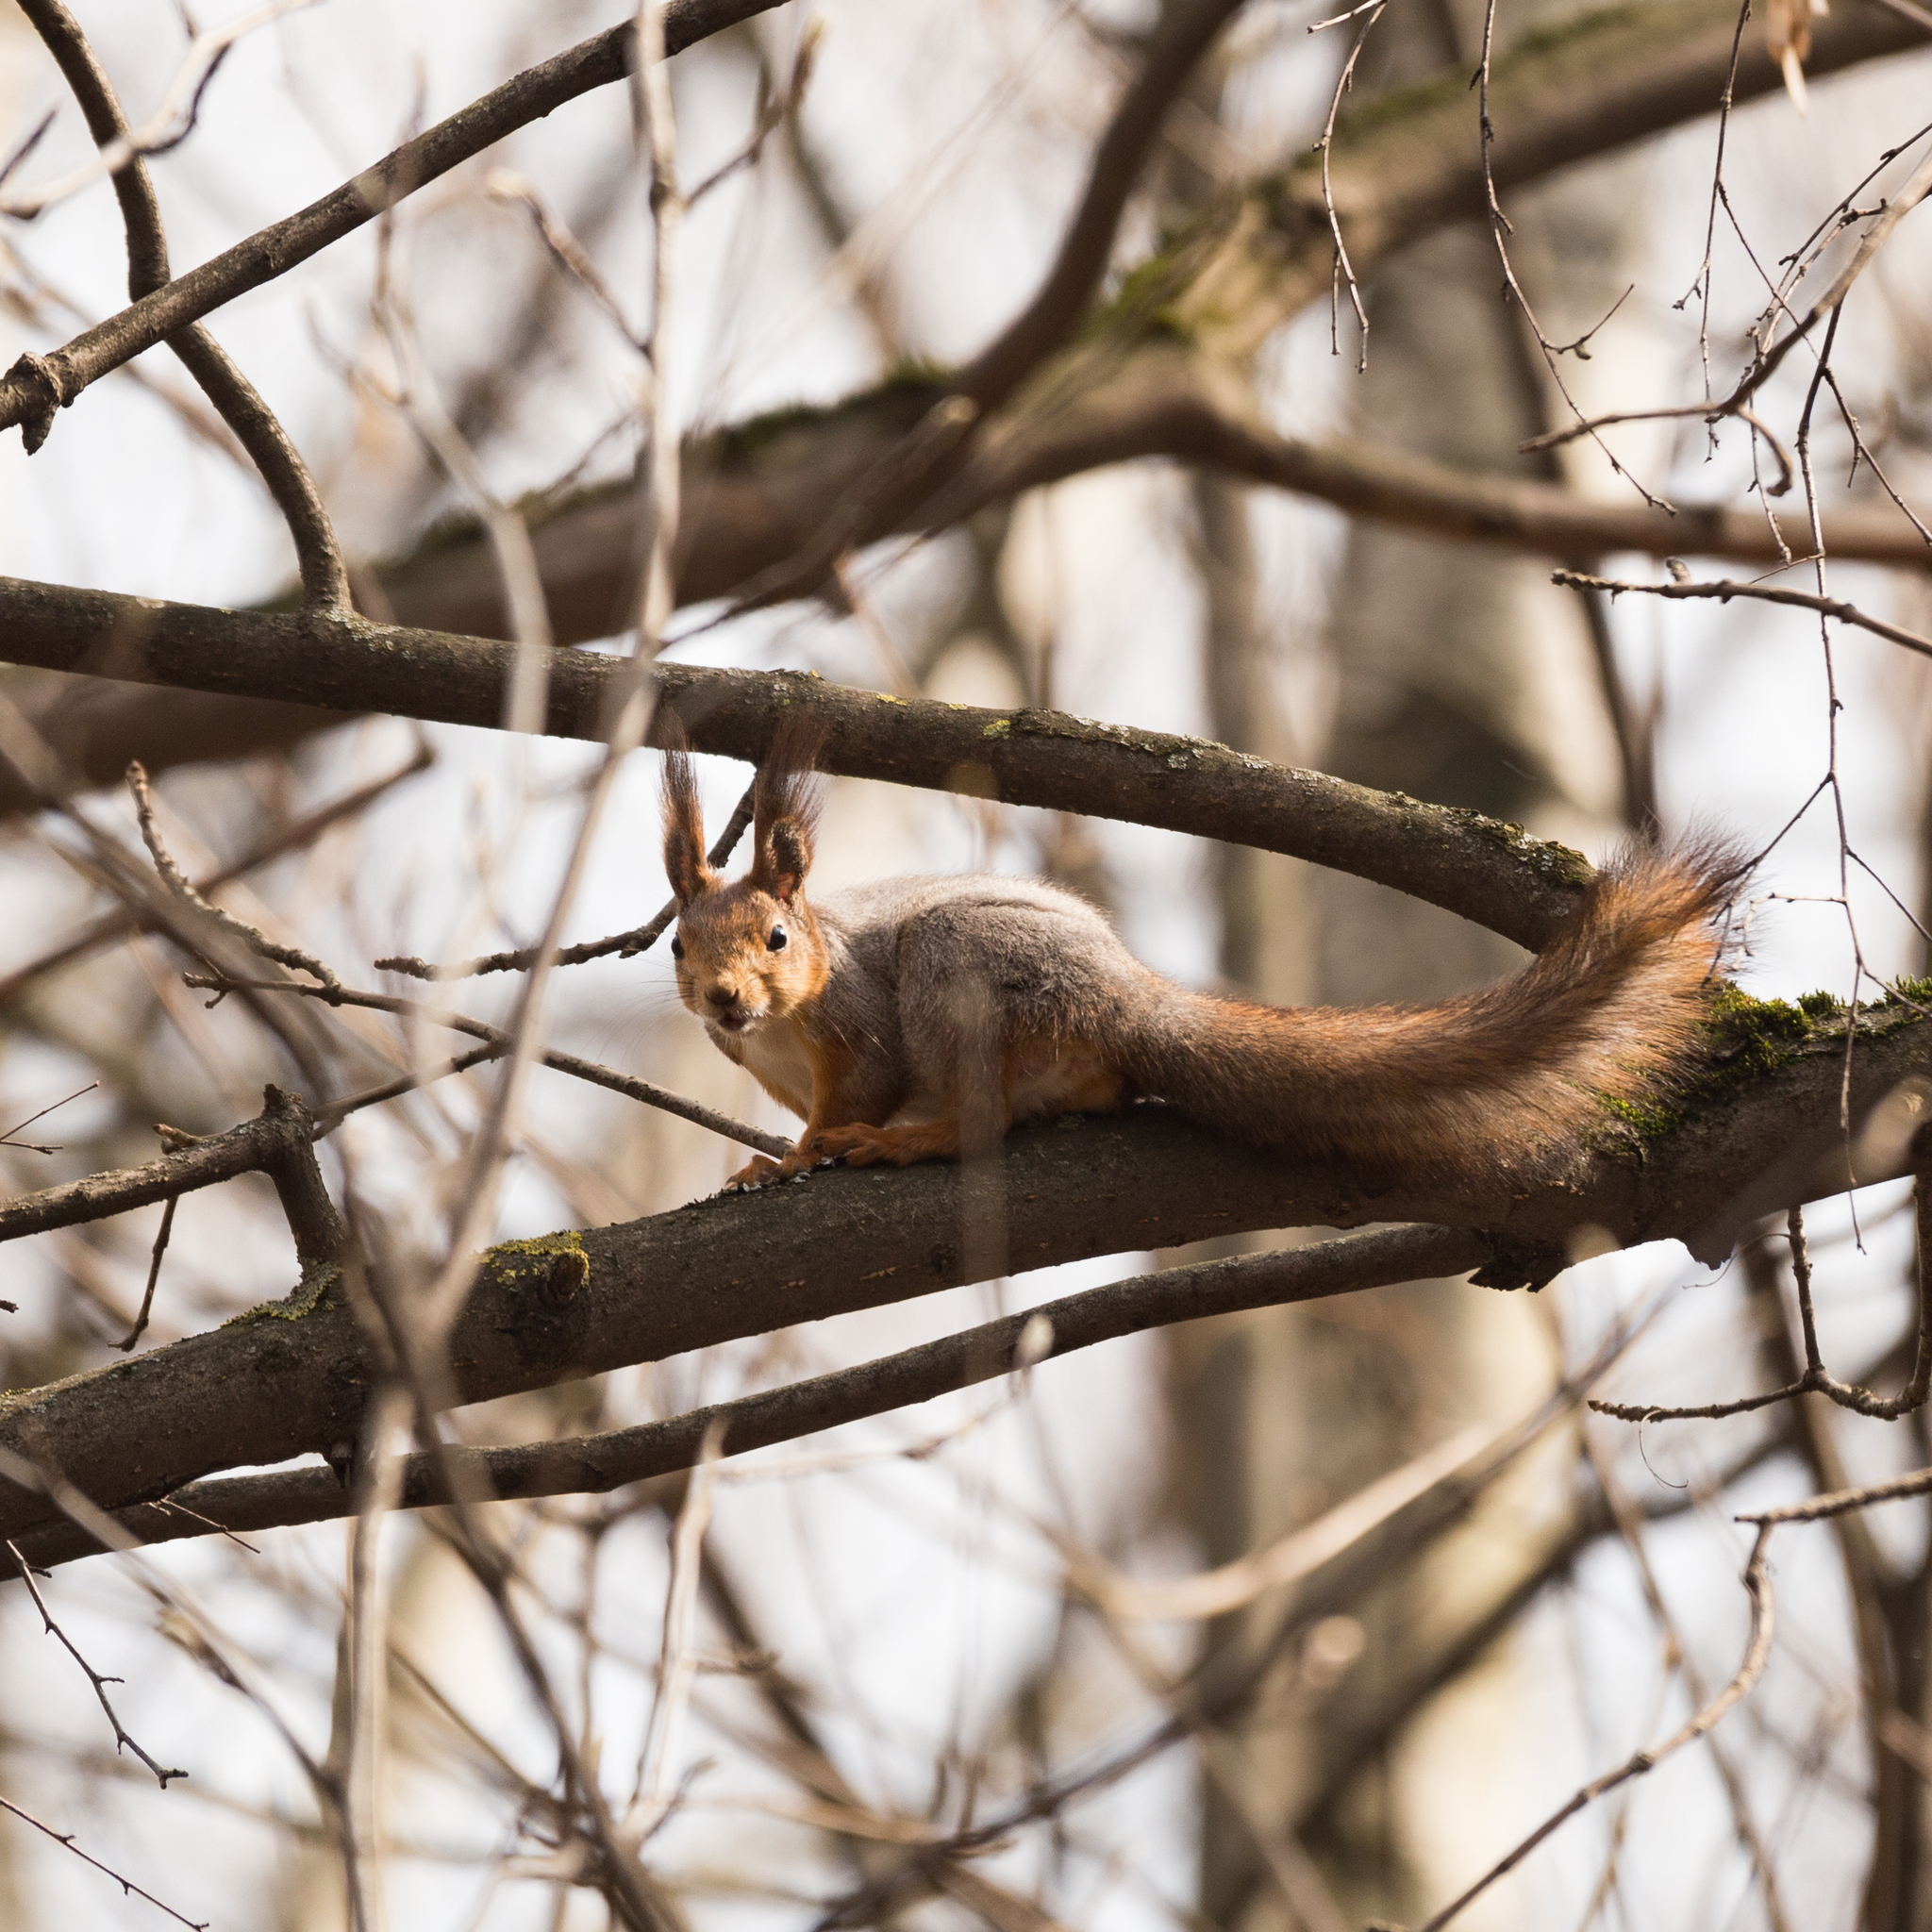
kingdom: Animalia
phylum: Chordata
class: Mammalia
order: Rodentia
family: Sciuridae
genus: Sciurus
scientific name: Sciurus vulgaris
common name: Eurasian red squirrel
